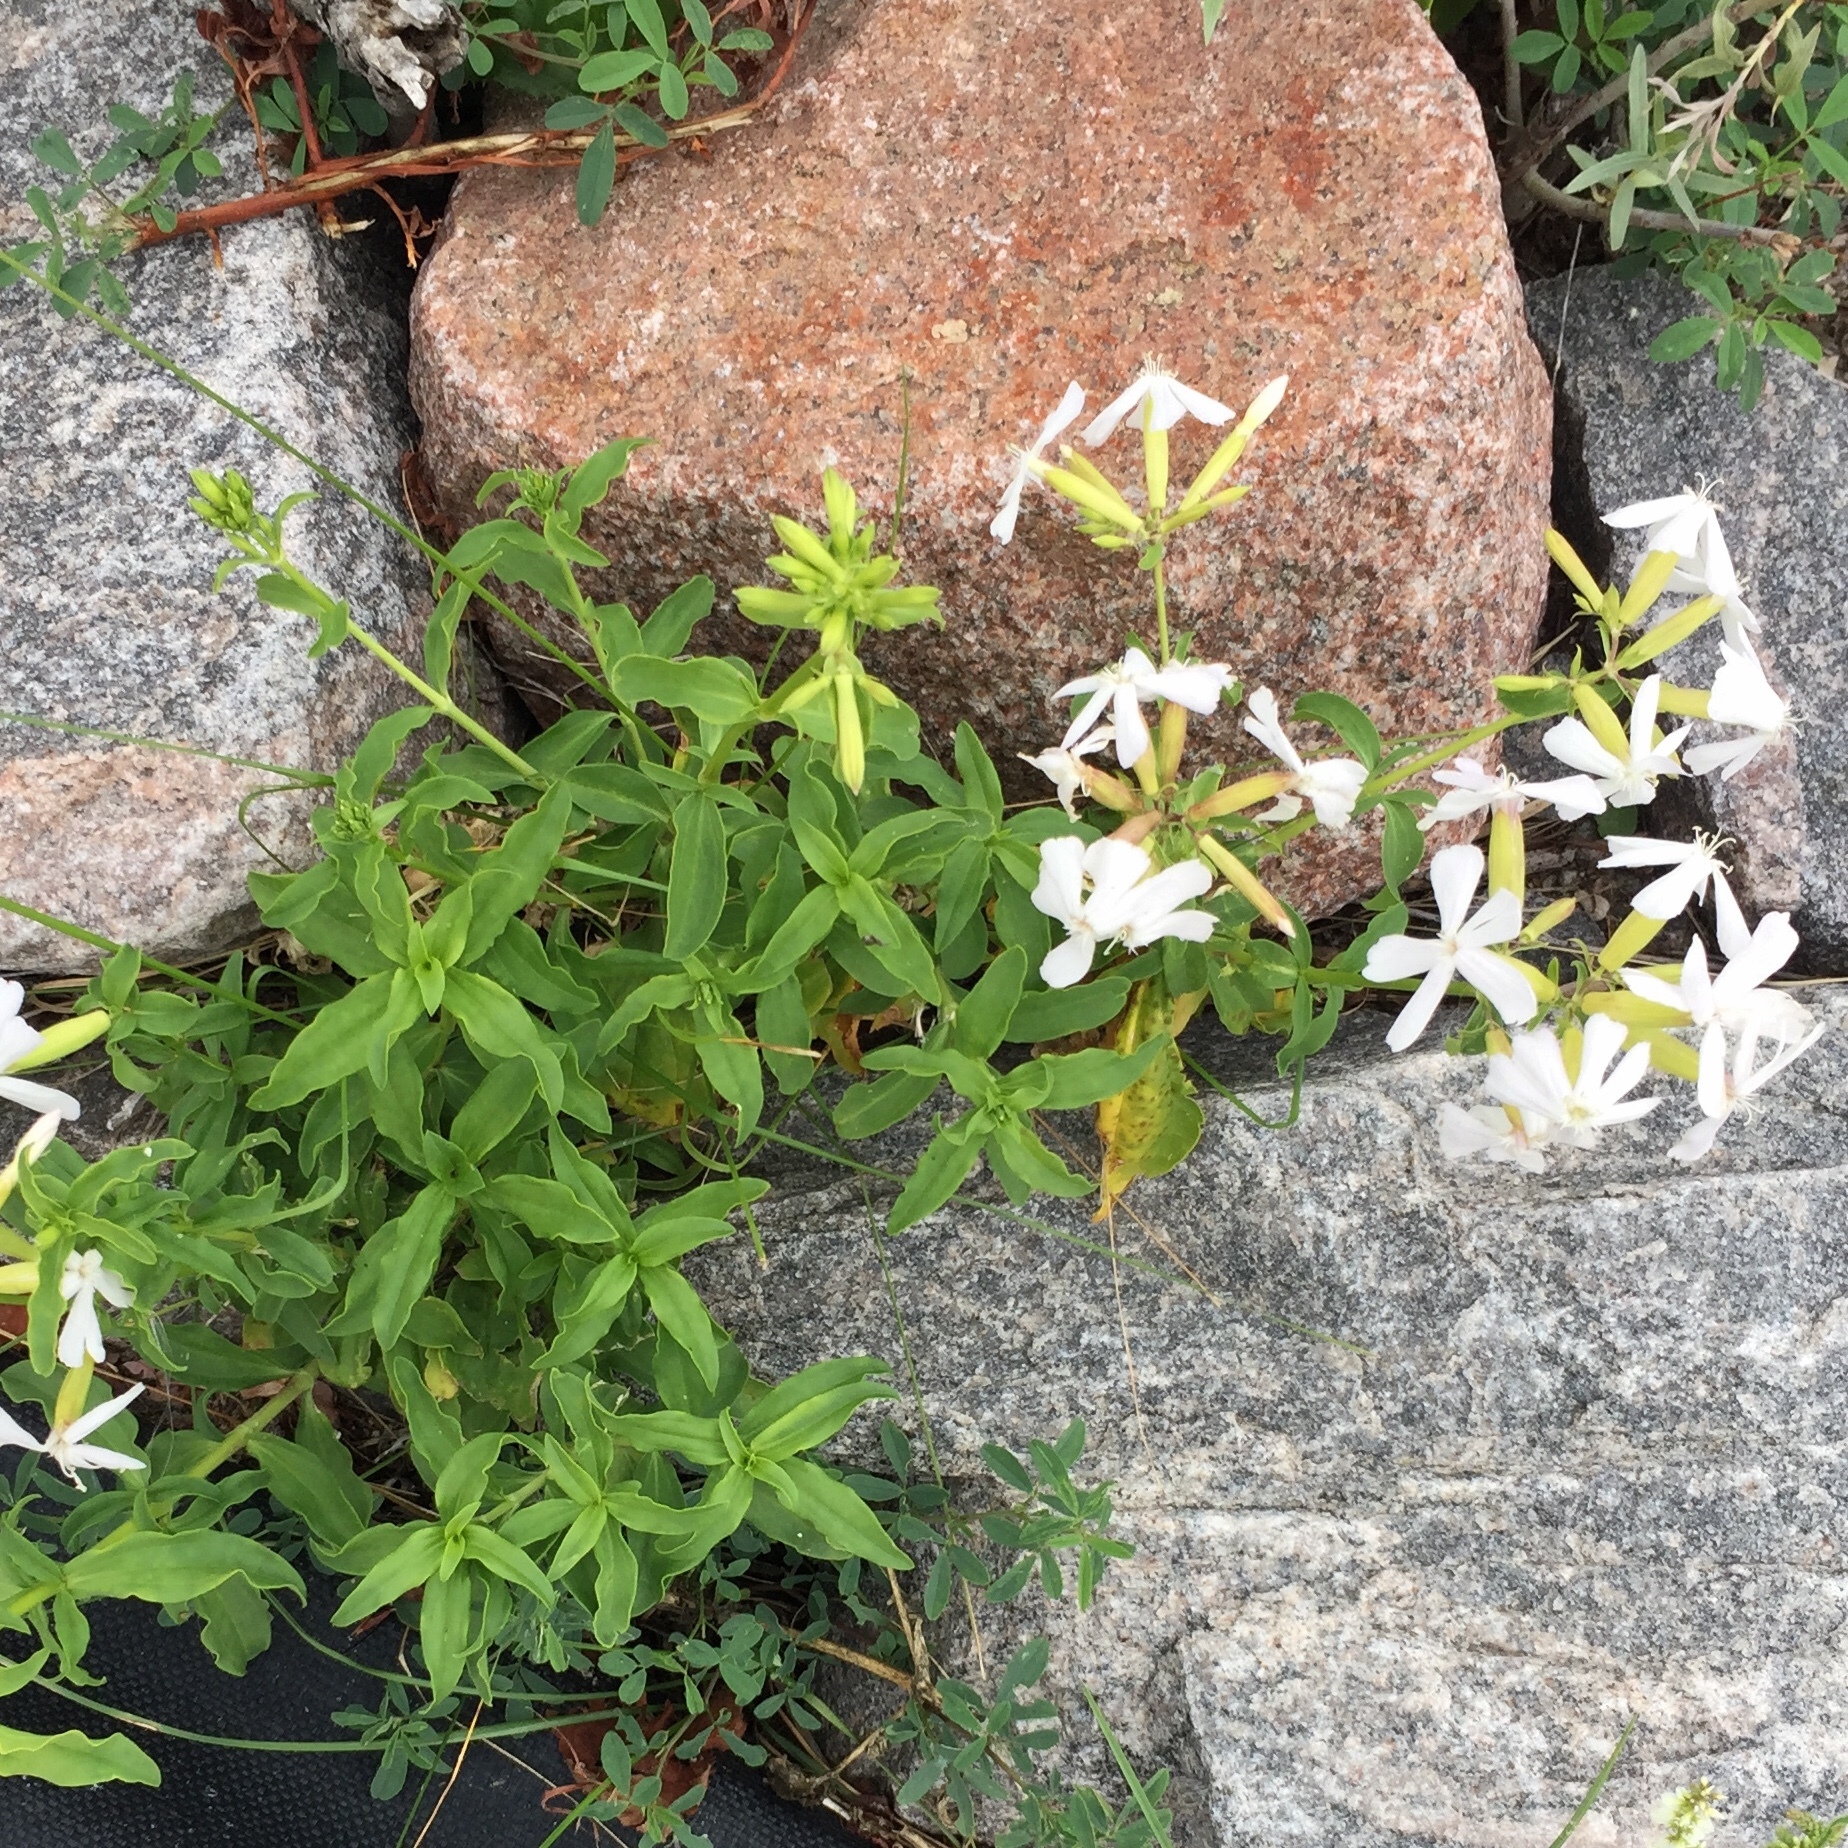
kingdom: Plantae
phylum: Tracheophyta
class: Magnoliopsida
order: Caryophyllales
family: Caryophyllaceae
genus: Saponaria
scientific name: Saponaria officinalis
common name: Soapwort
